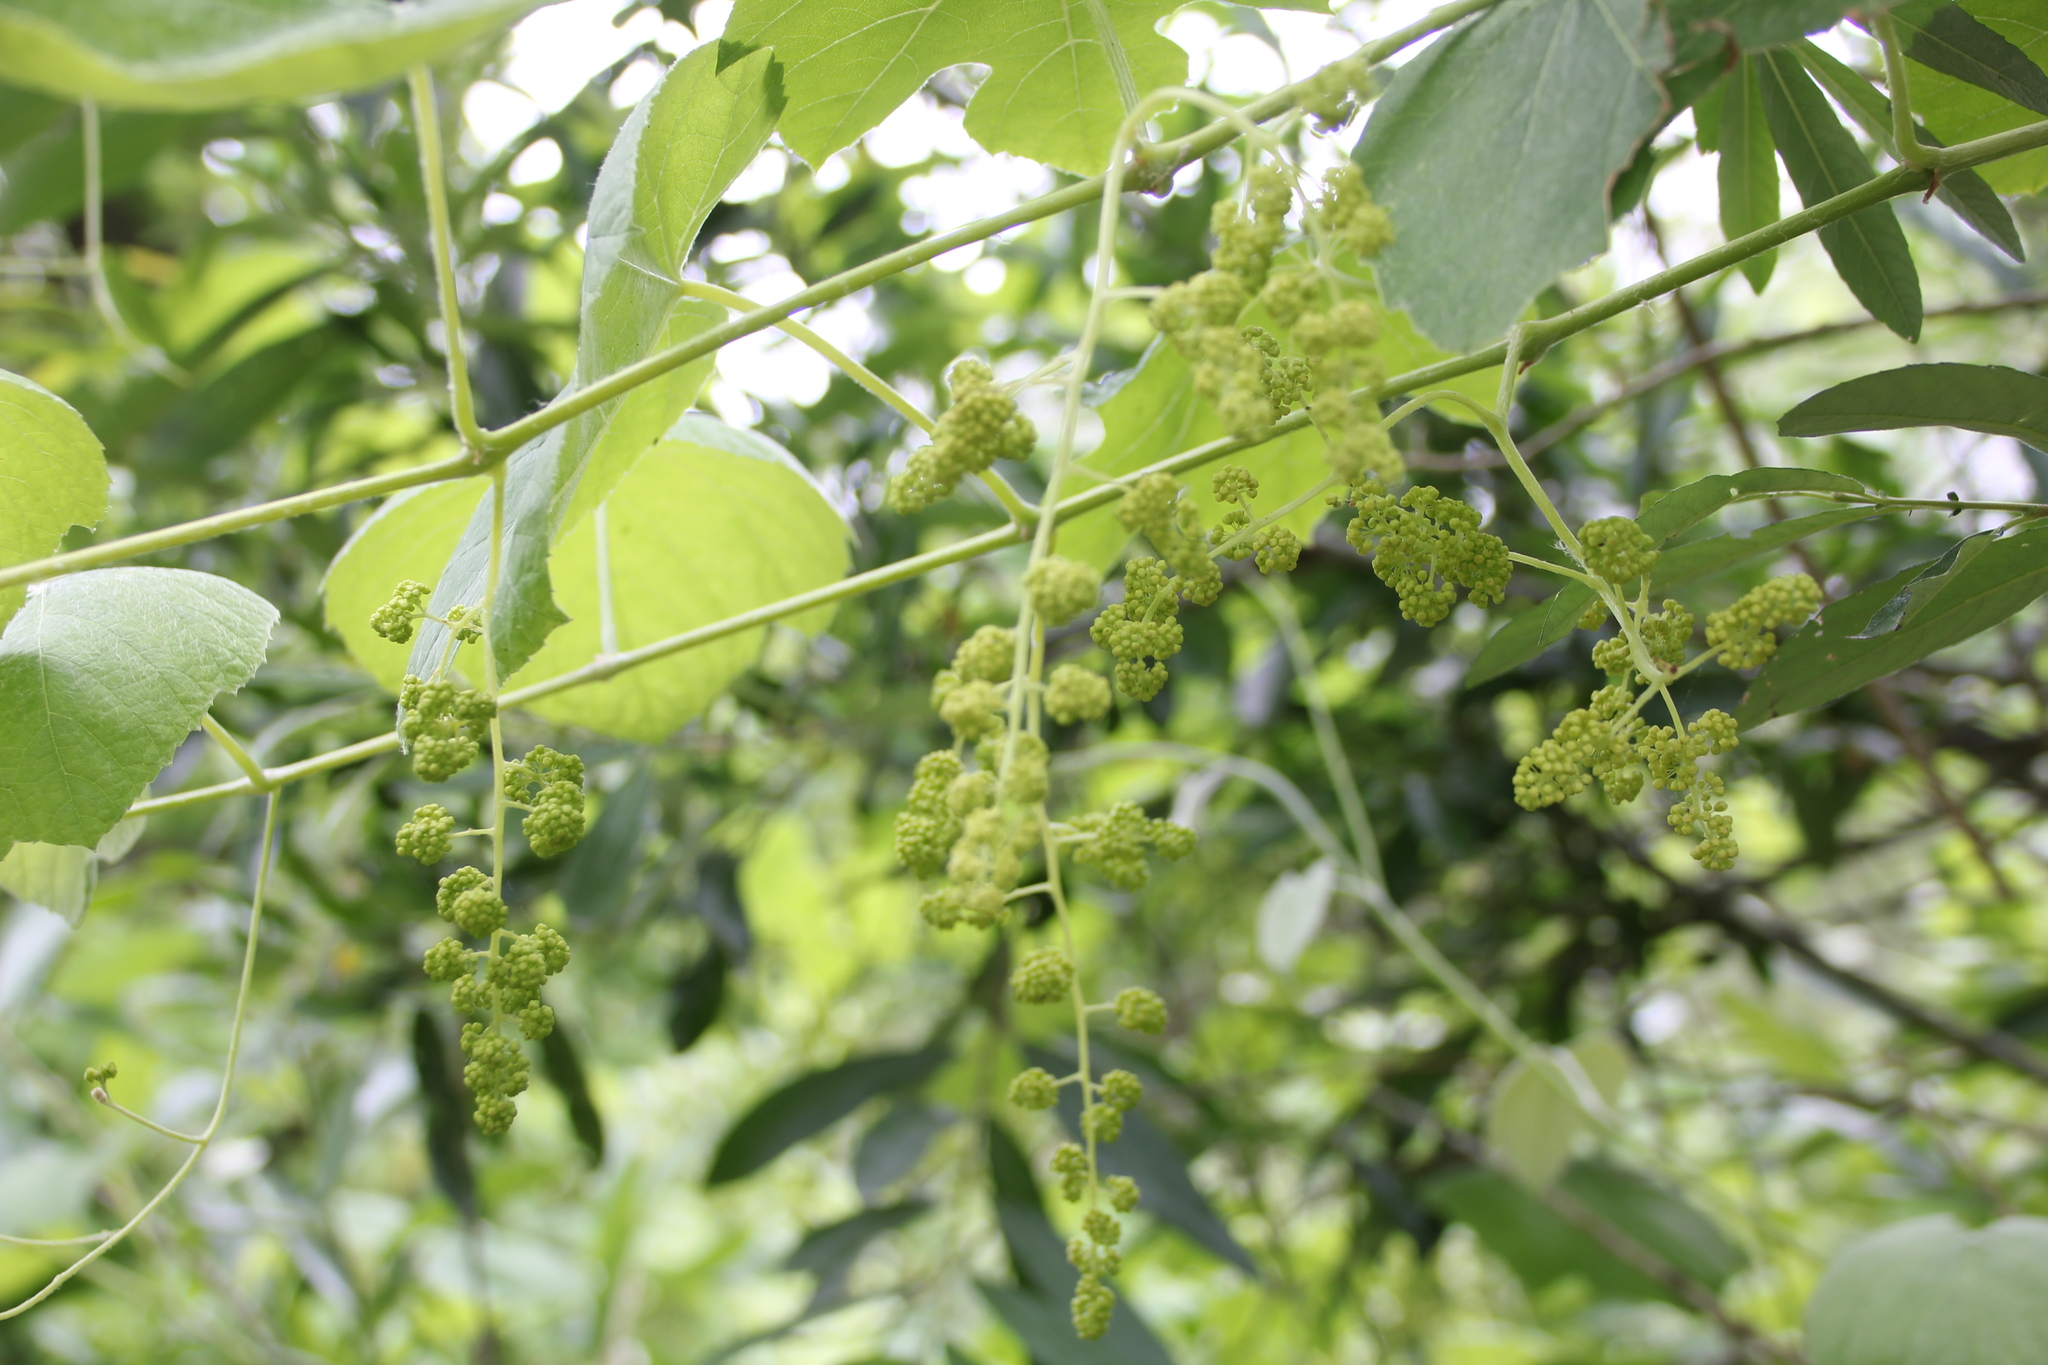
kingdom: Plantae
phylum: Tracheophyta
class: Magnoliopsida
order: Vitales
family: Vitaceae
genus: Vitis
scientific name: Vitis girdiana
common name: Desert wild grape
